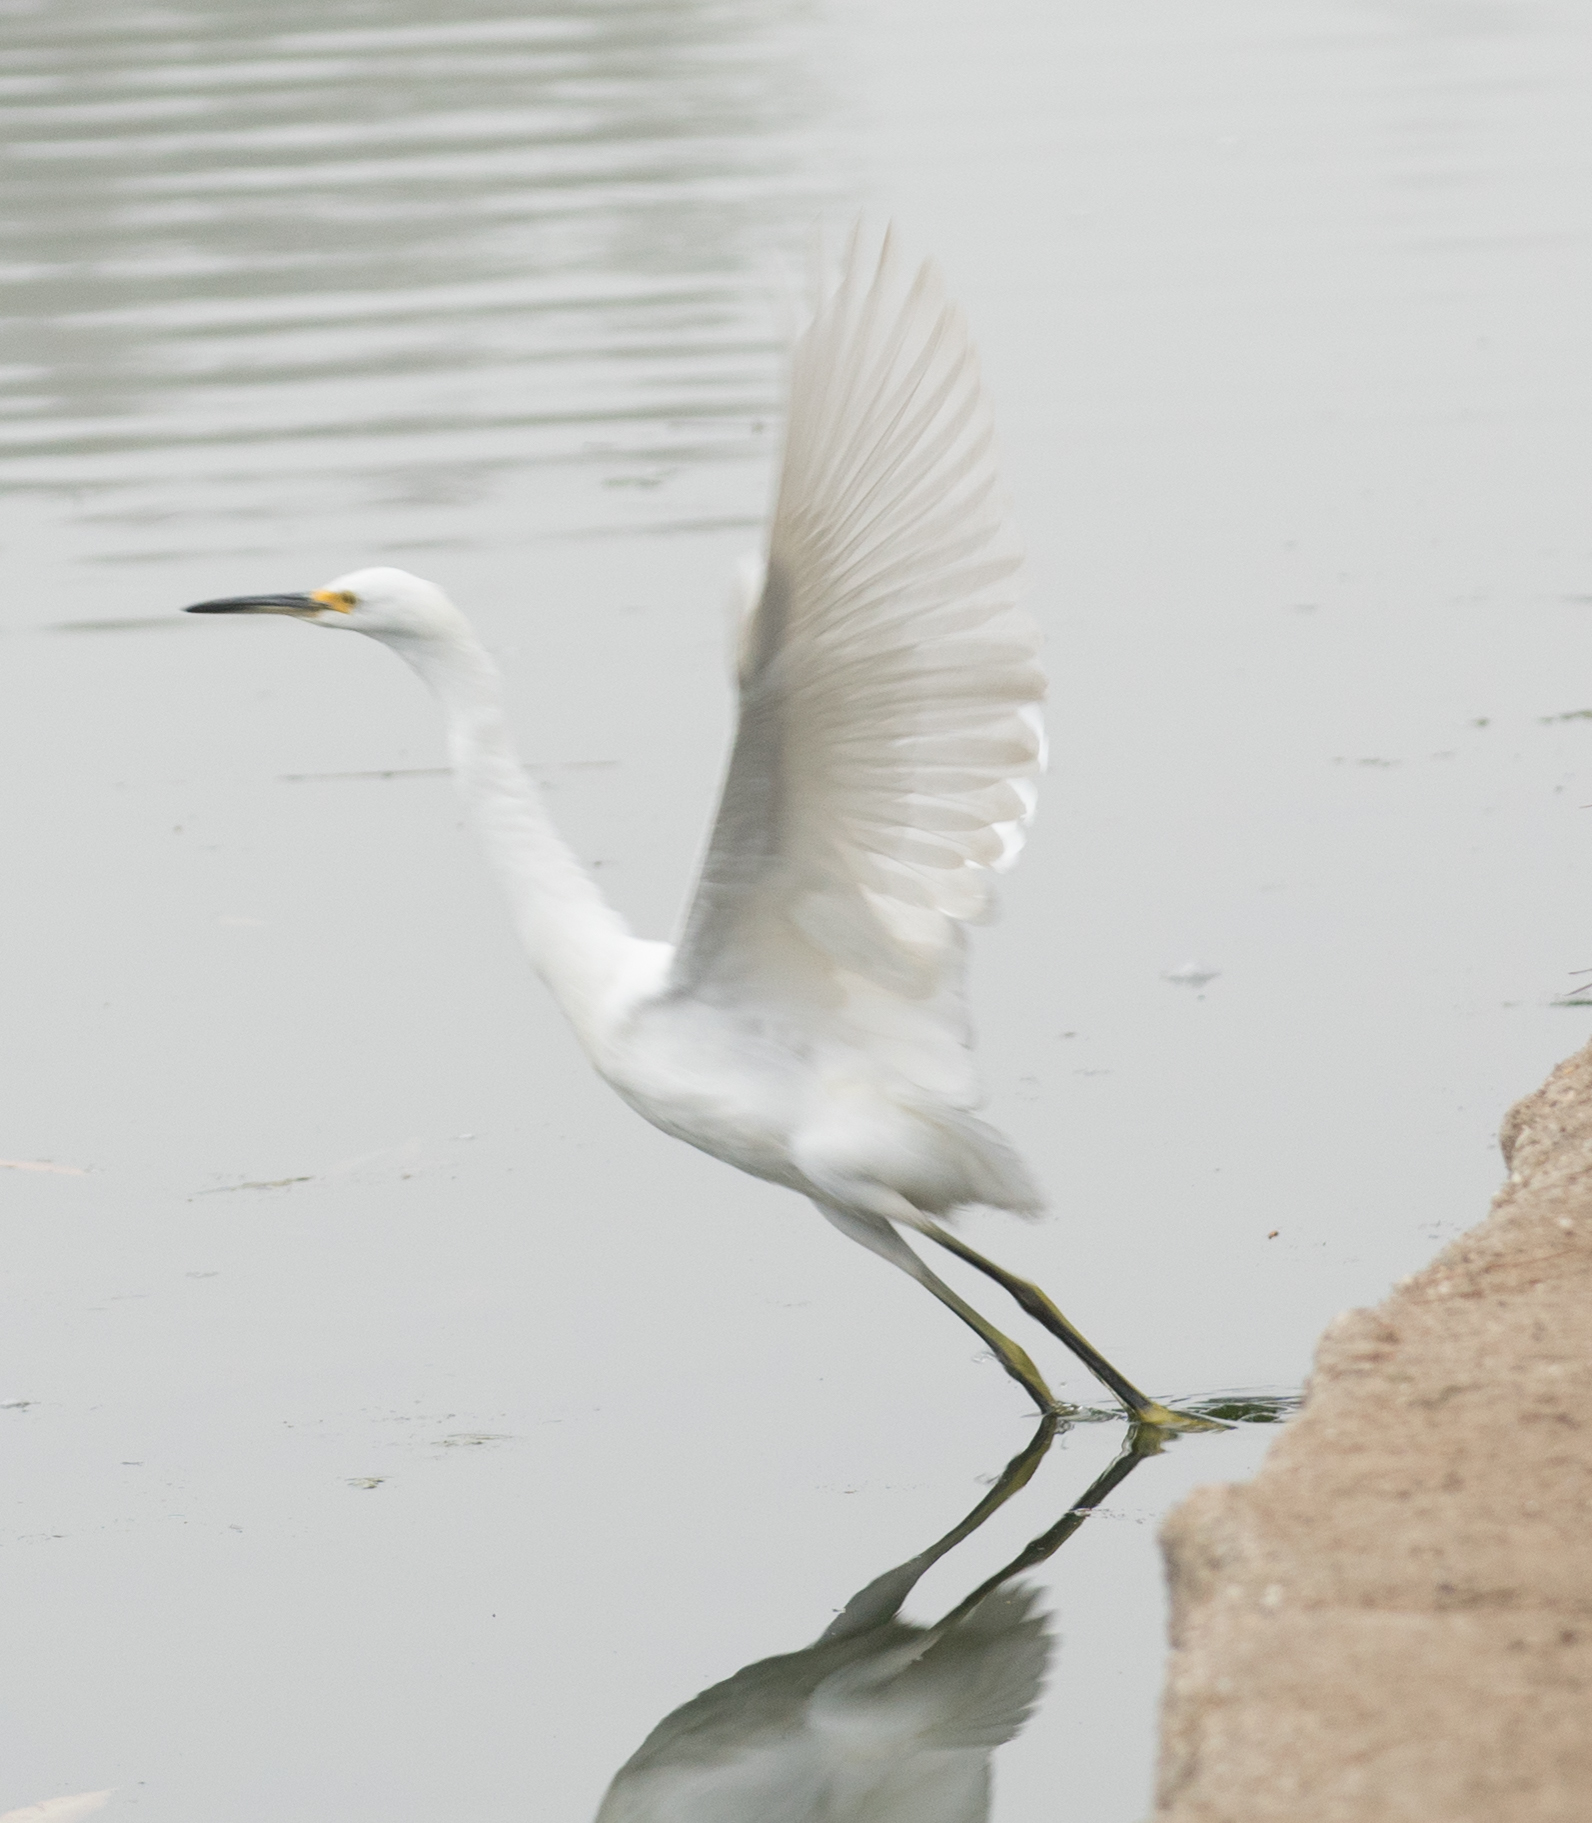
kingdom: Animalia
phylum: Chordata
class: Aves
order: Pelecaniformes
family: Ardeidae
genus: Egretta
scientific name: Egretta thula
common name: Snowy egret
